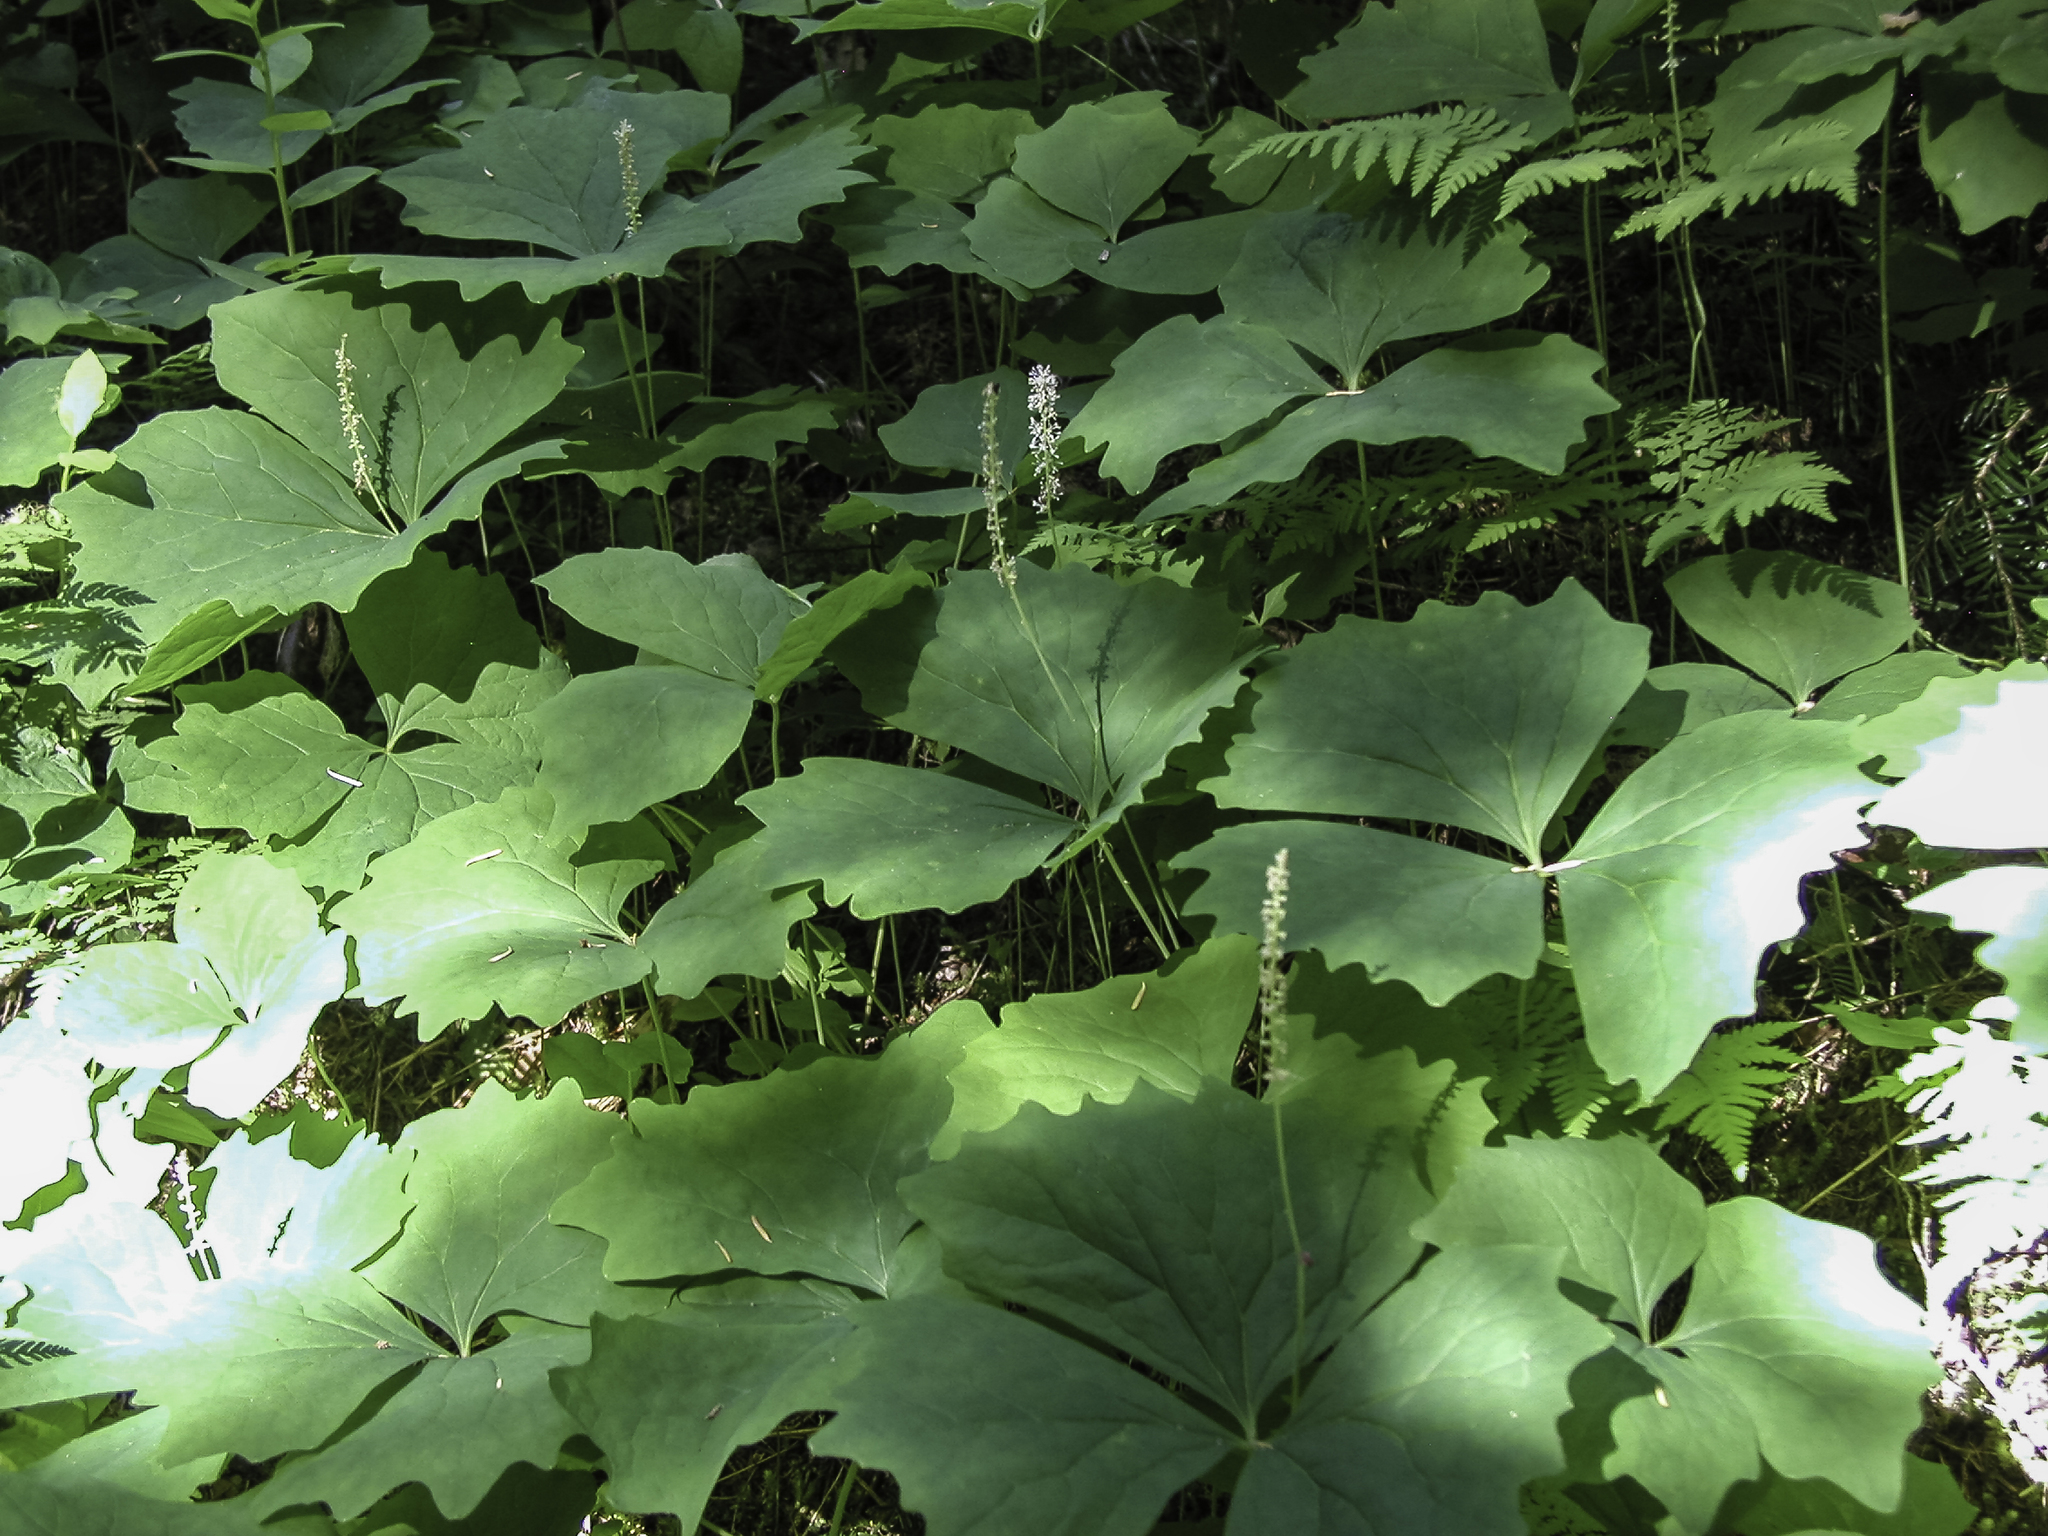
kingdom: Plantae
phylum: Tracheophyta
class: Magnoliopsida
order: Ranunculales
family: Berberidaceae
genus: Achlys
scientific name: Achlys triphylla
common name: Vanilla-leaf
